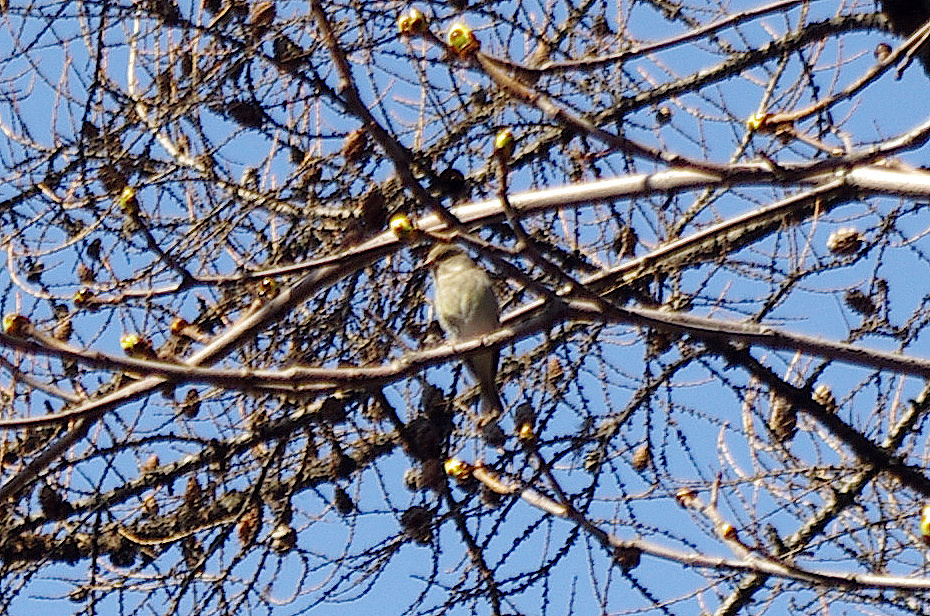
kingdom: Plantae
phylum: Tracheophyta
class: Liliopsida
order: Poales
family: Poaceae
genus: Chloris
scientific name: Chloris chloris
